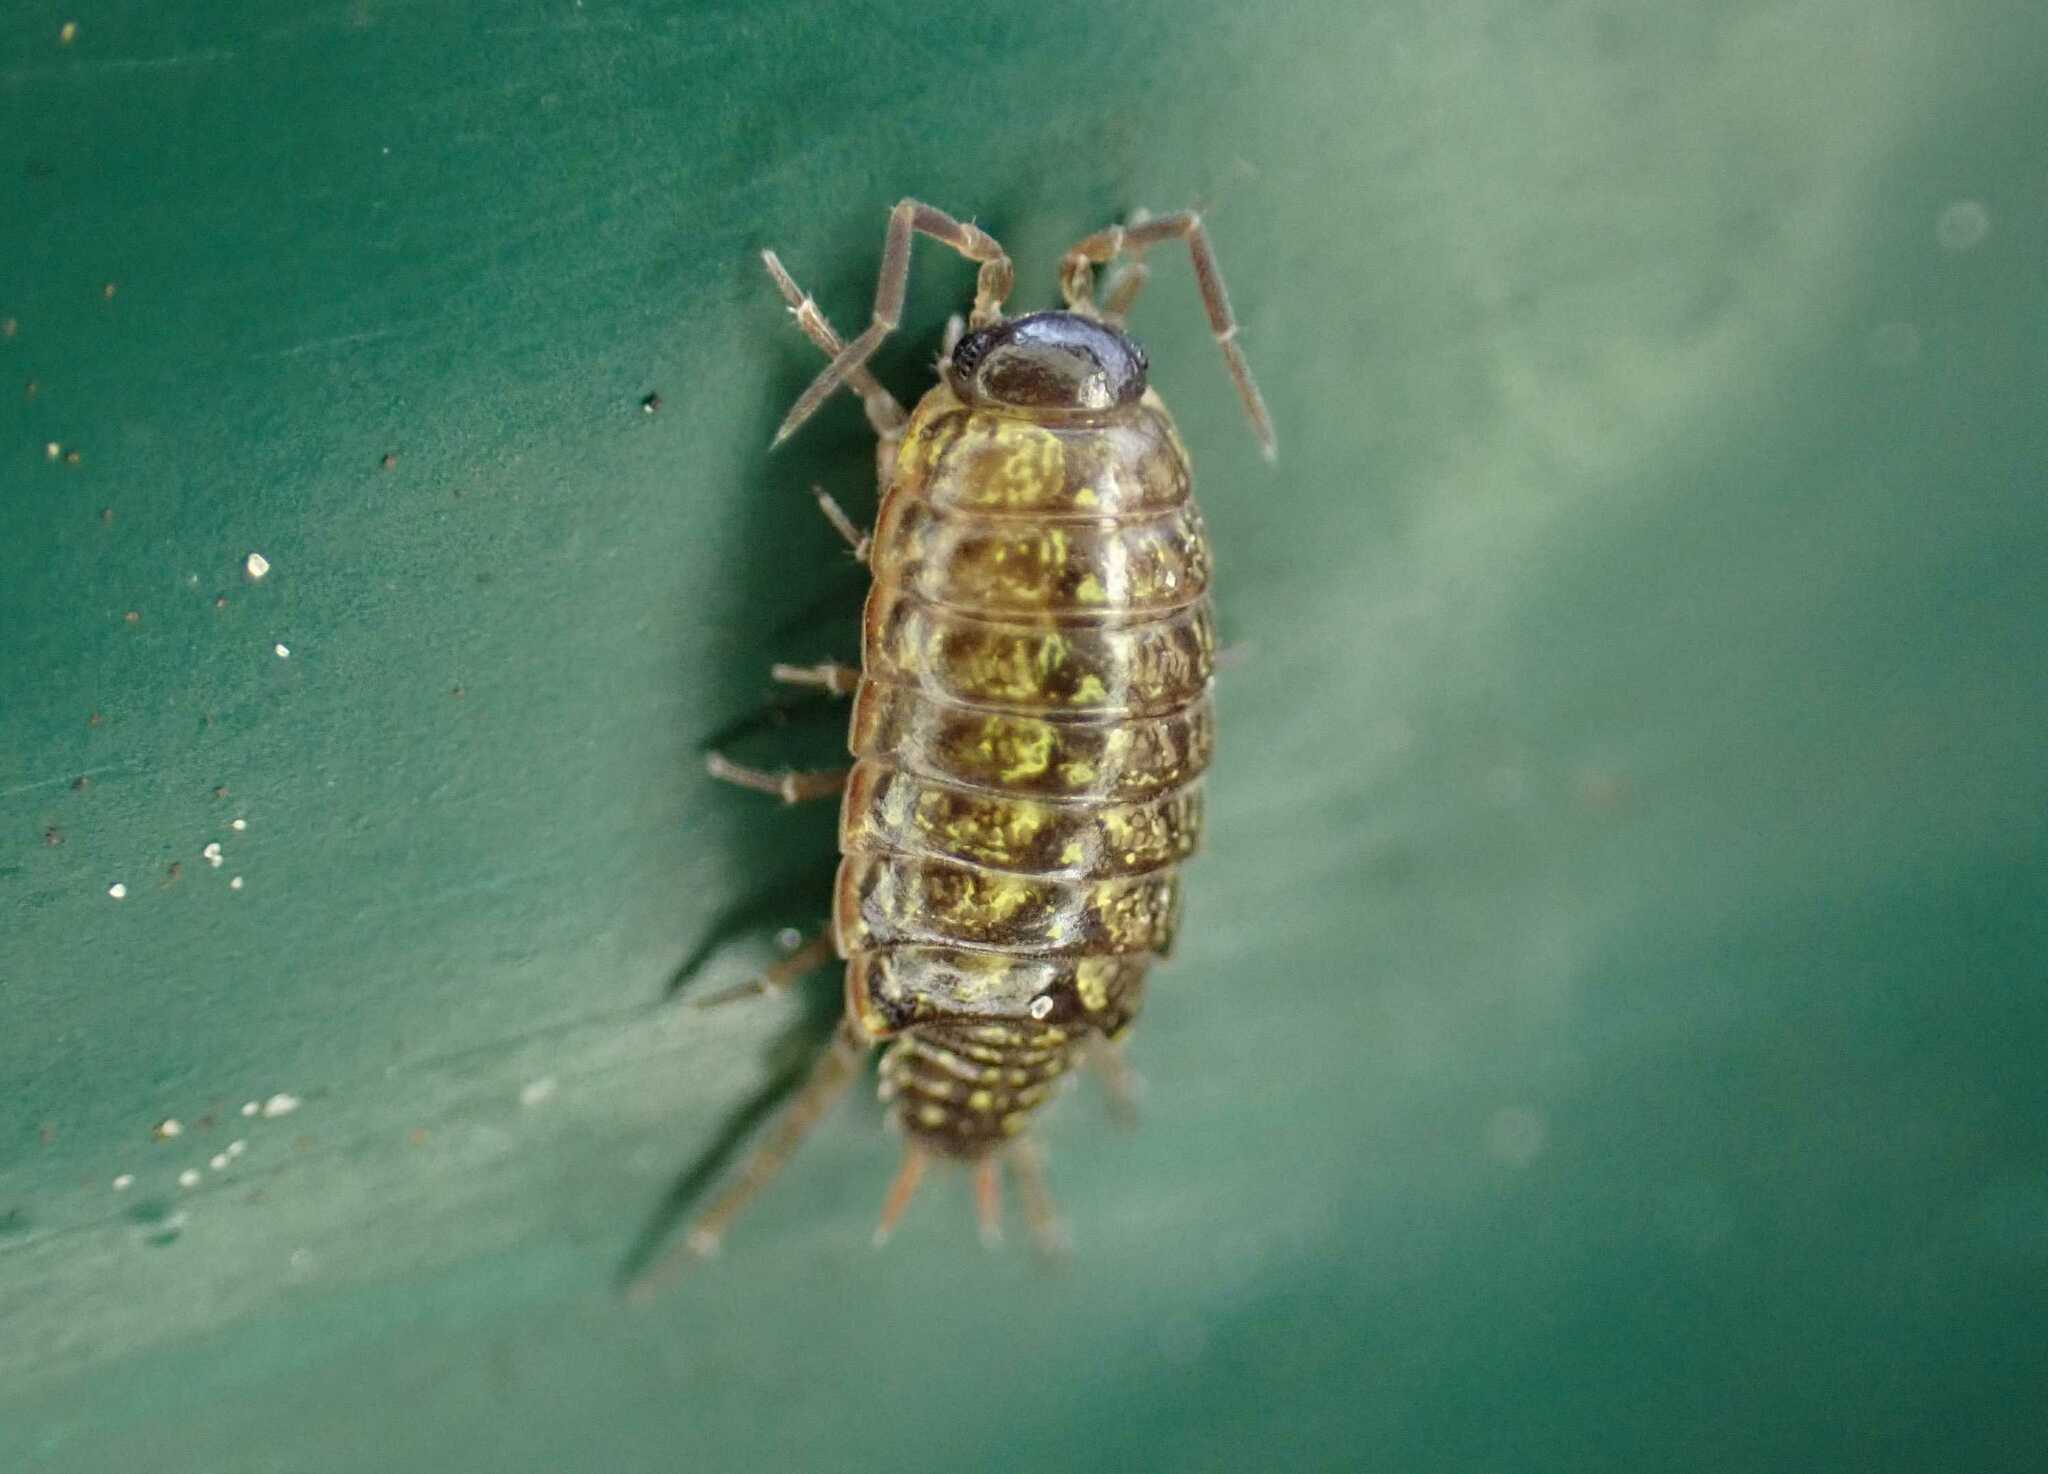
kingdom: Animalia
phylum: Arthropoda
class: Malacostraca
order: Isopoda
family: Philosciidae
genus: Philoscia
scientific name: Philoscia muscorum
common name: Common striped woodlouse
